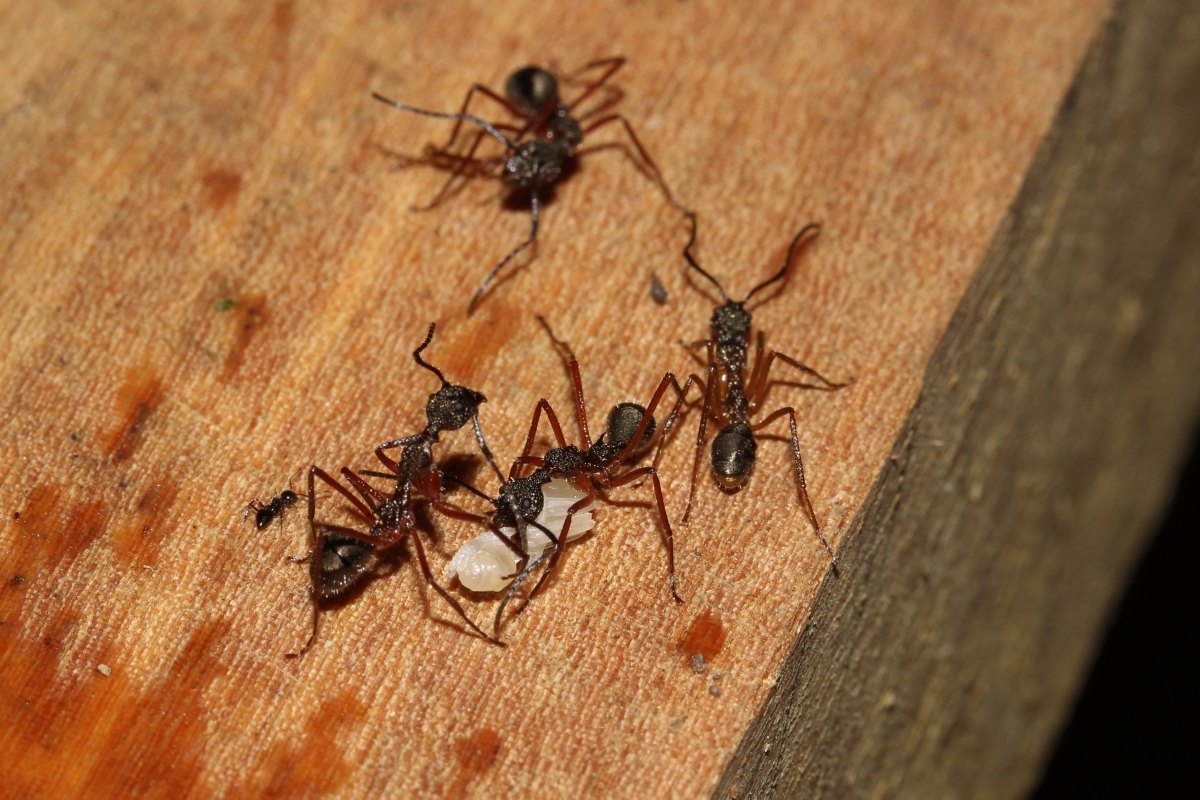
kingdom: Animalia
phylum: Arthropoda
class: Insecta
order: Hymenoptera
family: Formicidae
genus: Dolichoderus
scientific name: Dolichoderus longicollis
